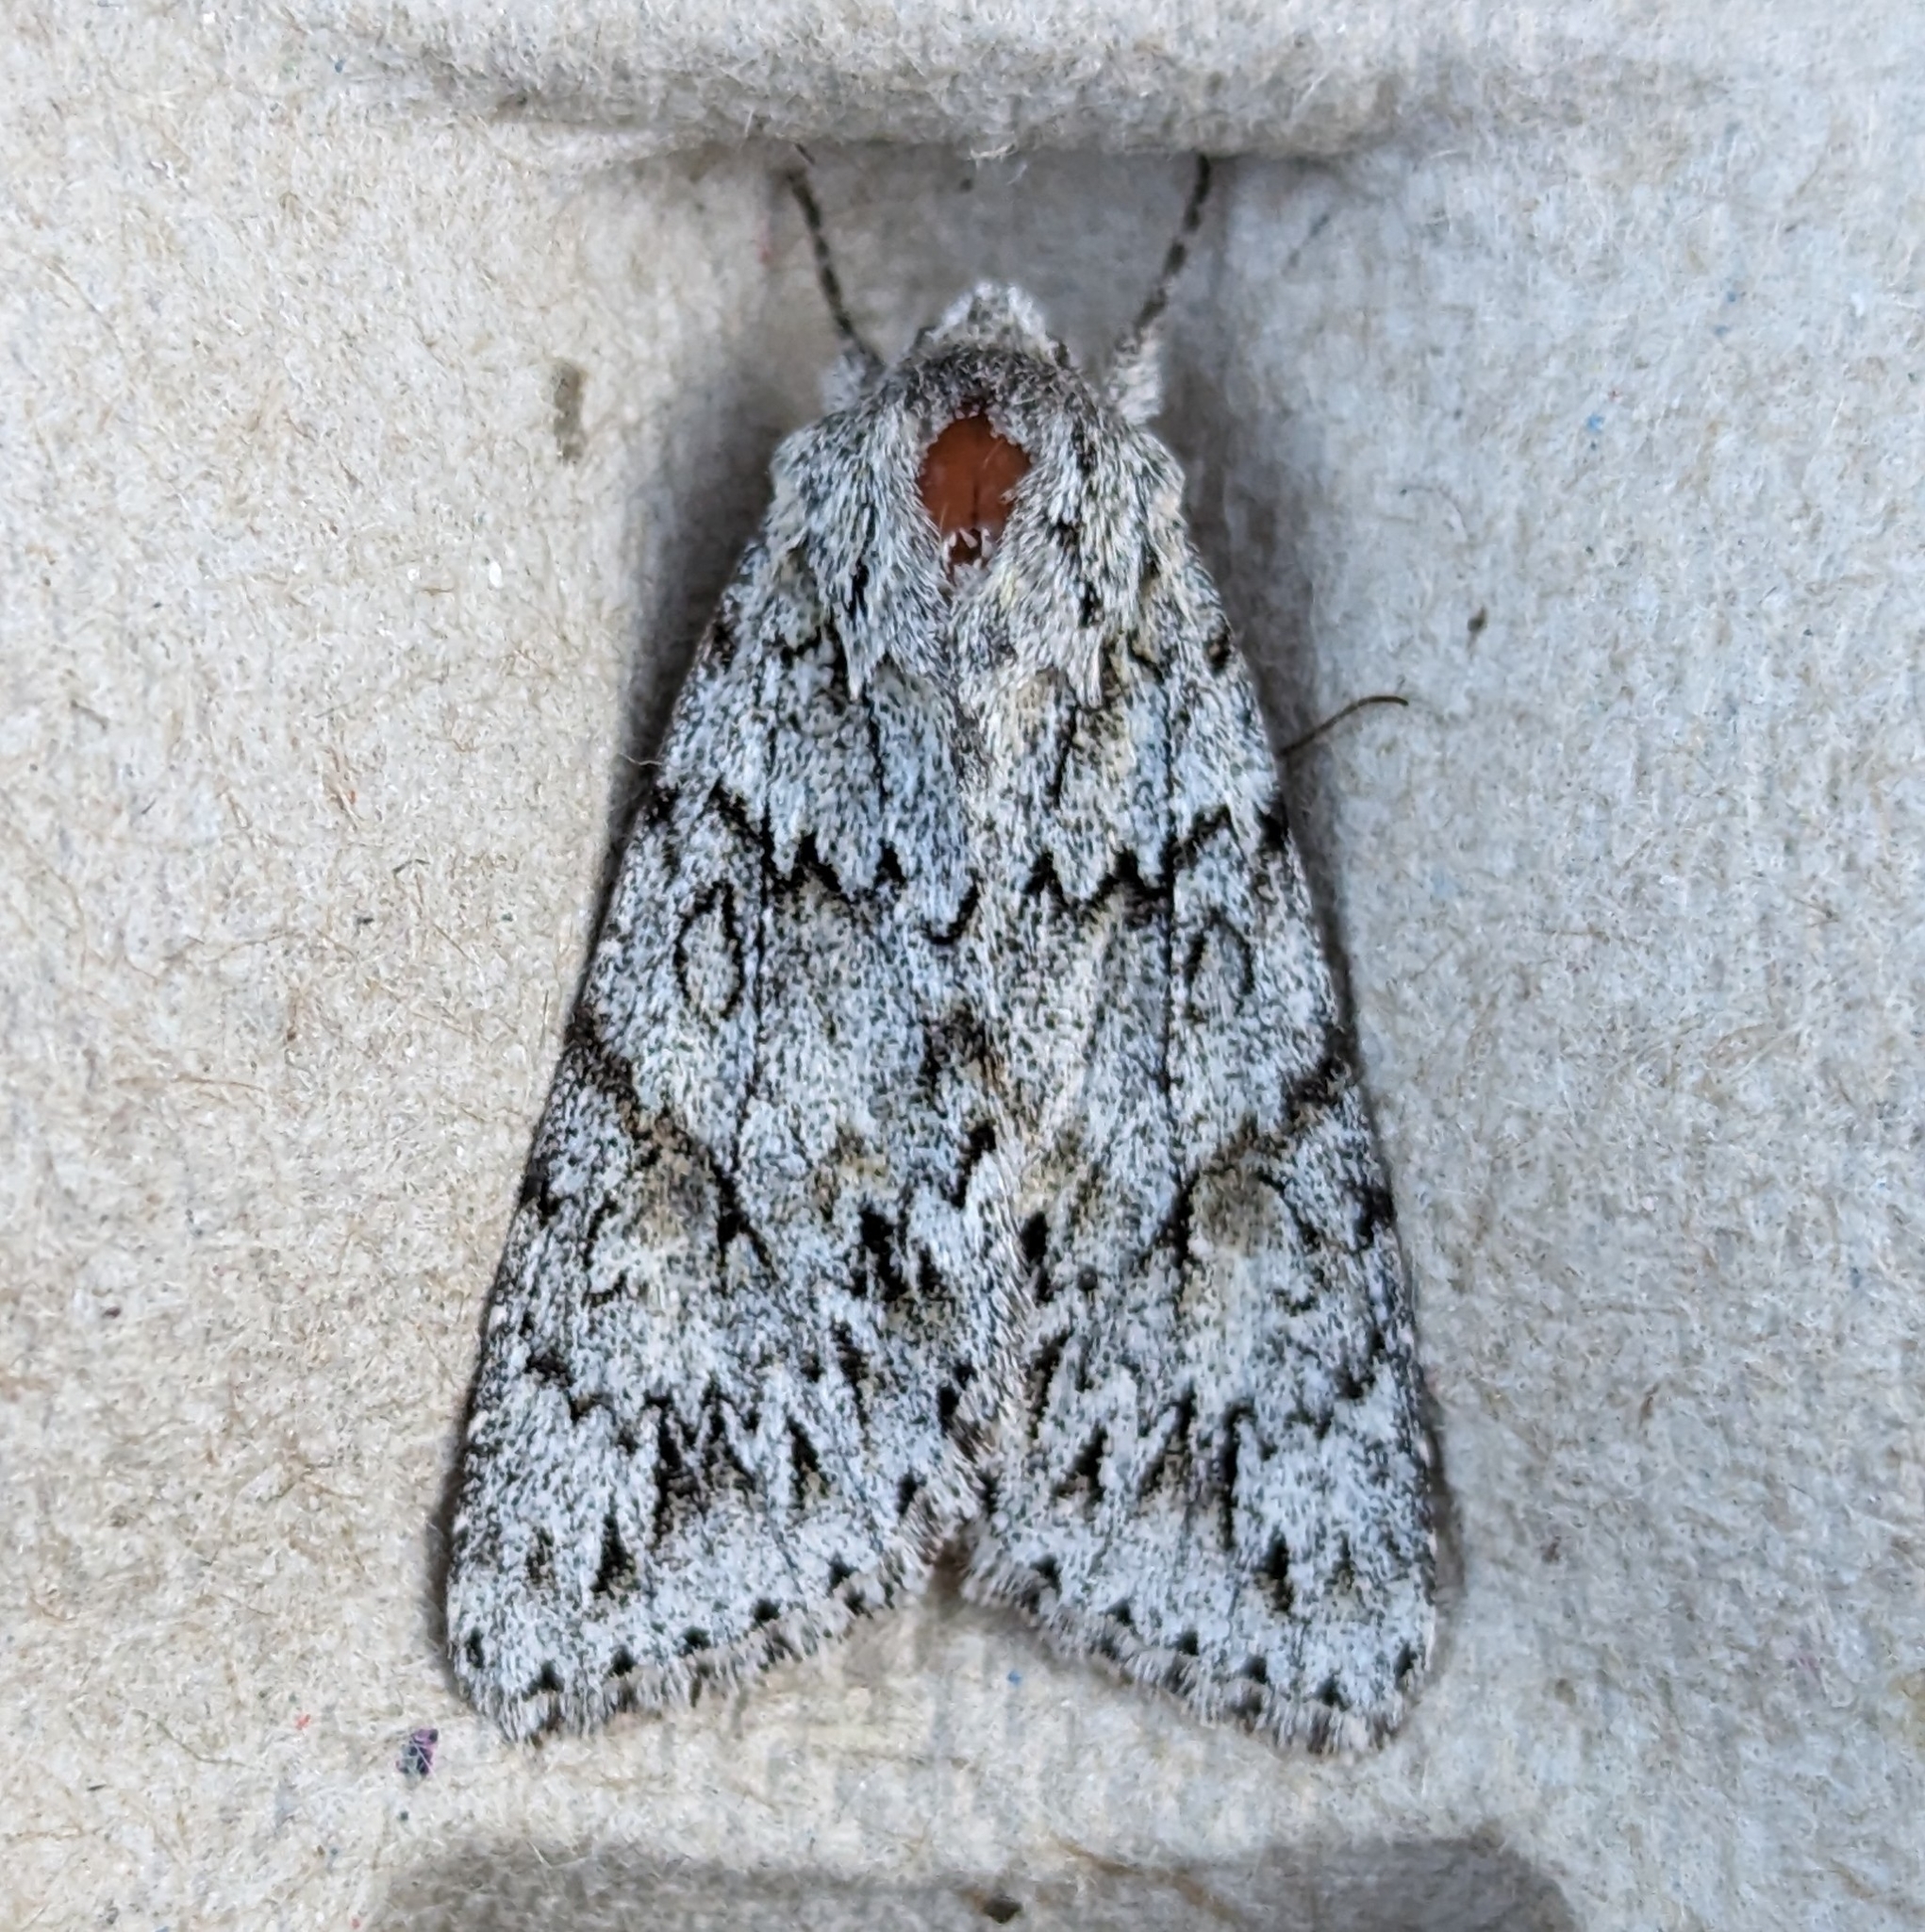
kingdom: Animalia
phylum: Arthropoda
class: Insecta
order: Lepidoptera
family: Noctuidae
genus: Andropolia
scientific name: Andropolia aedon
